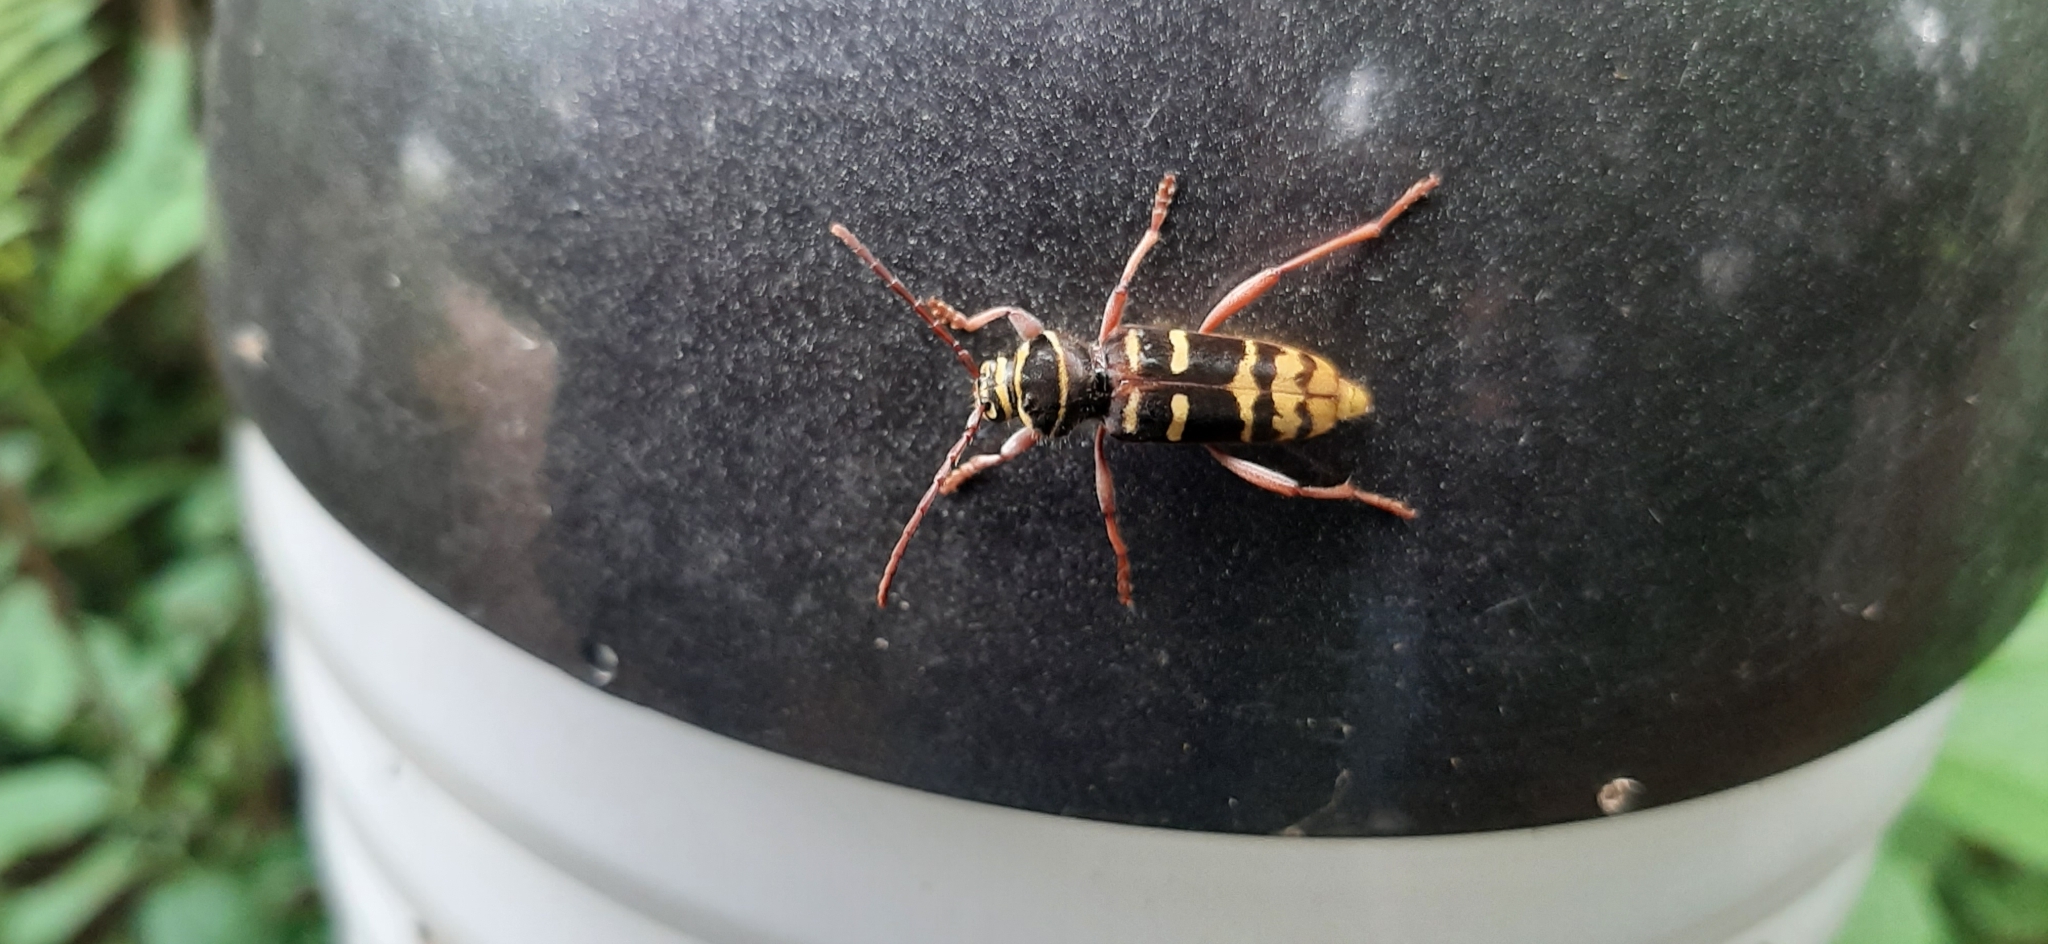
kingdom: Animalia
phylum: Arthropoda
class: Insecta
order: Coleoptera
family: Cerambycidae
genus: Plagionotus
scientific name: Plagionotus detritus
